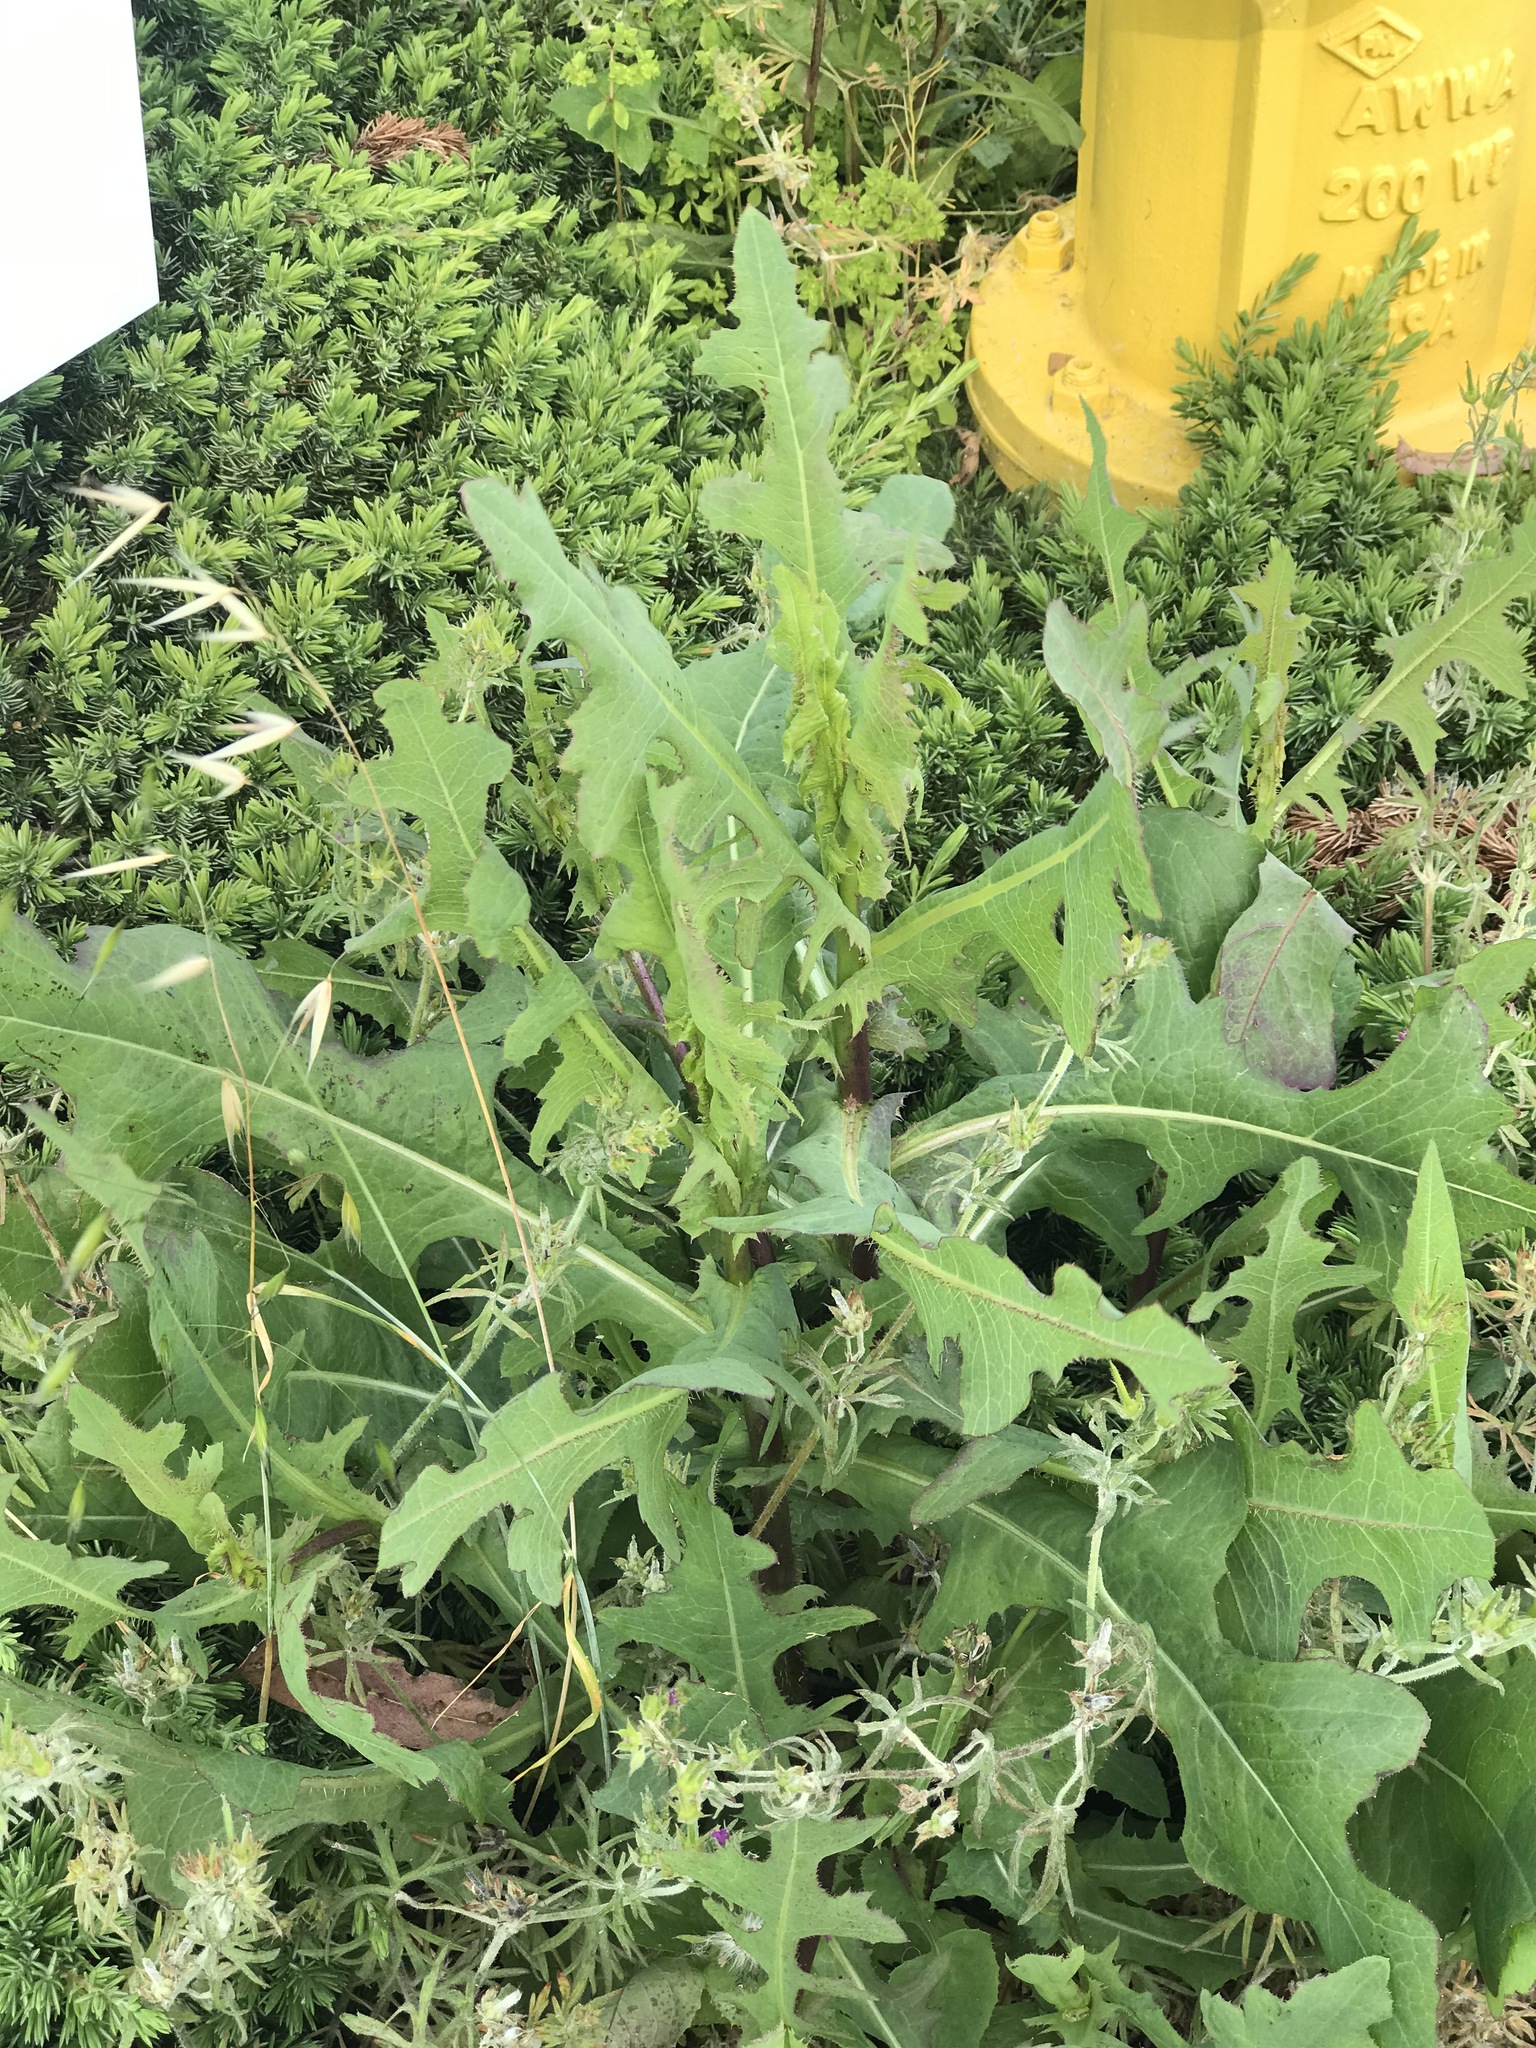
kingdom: Plantae
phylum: Tracheophyta
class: Magnoliopsida
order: Asterales
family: Asteraceae
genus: Lactuca
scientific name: Lactuca serriola
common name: Prickly lettuce
